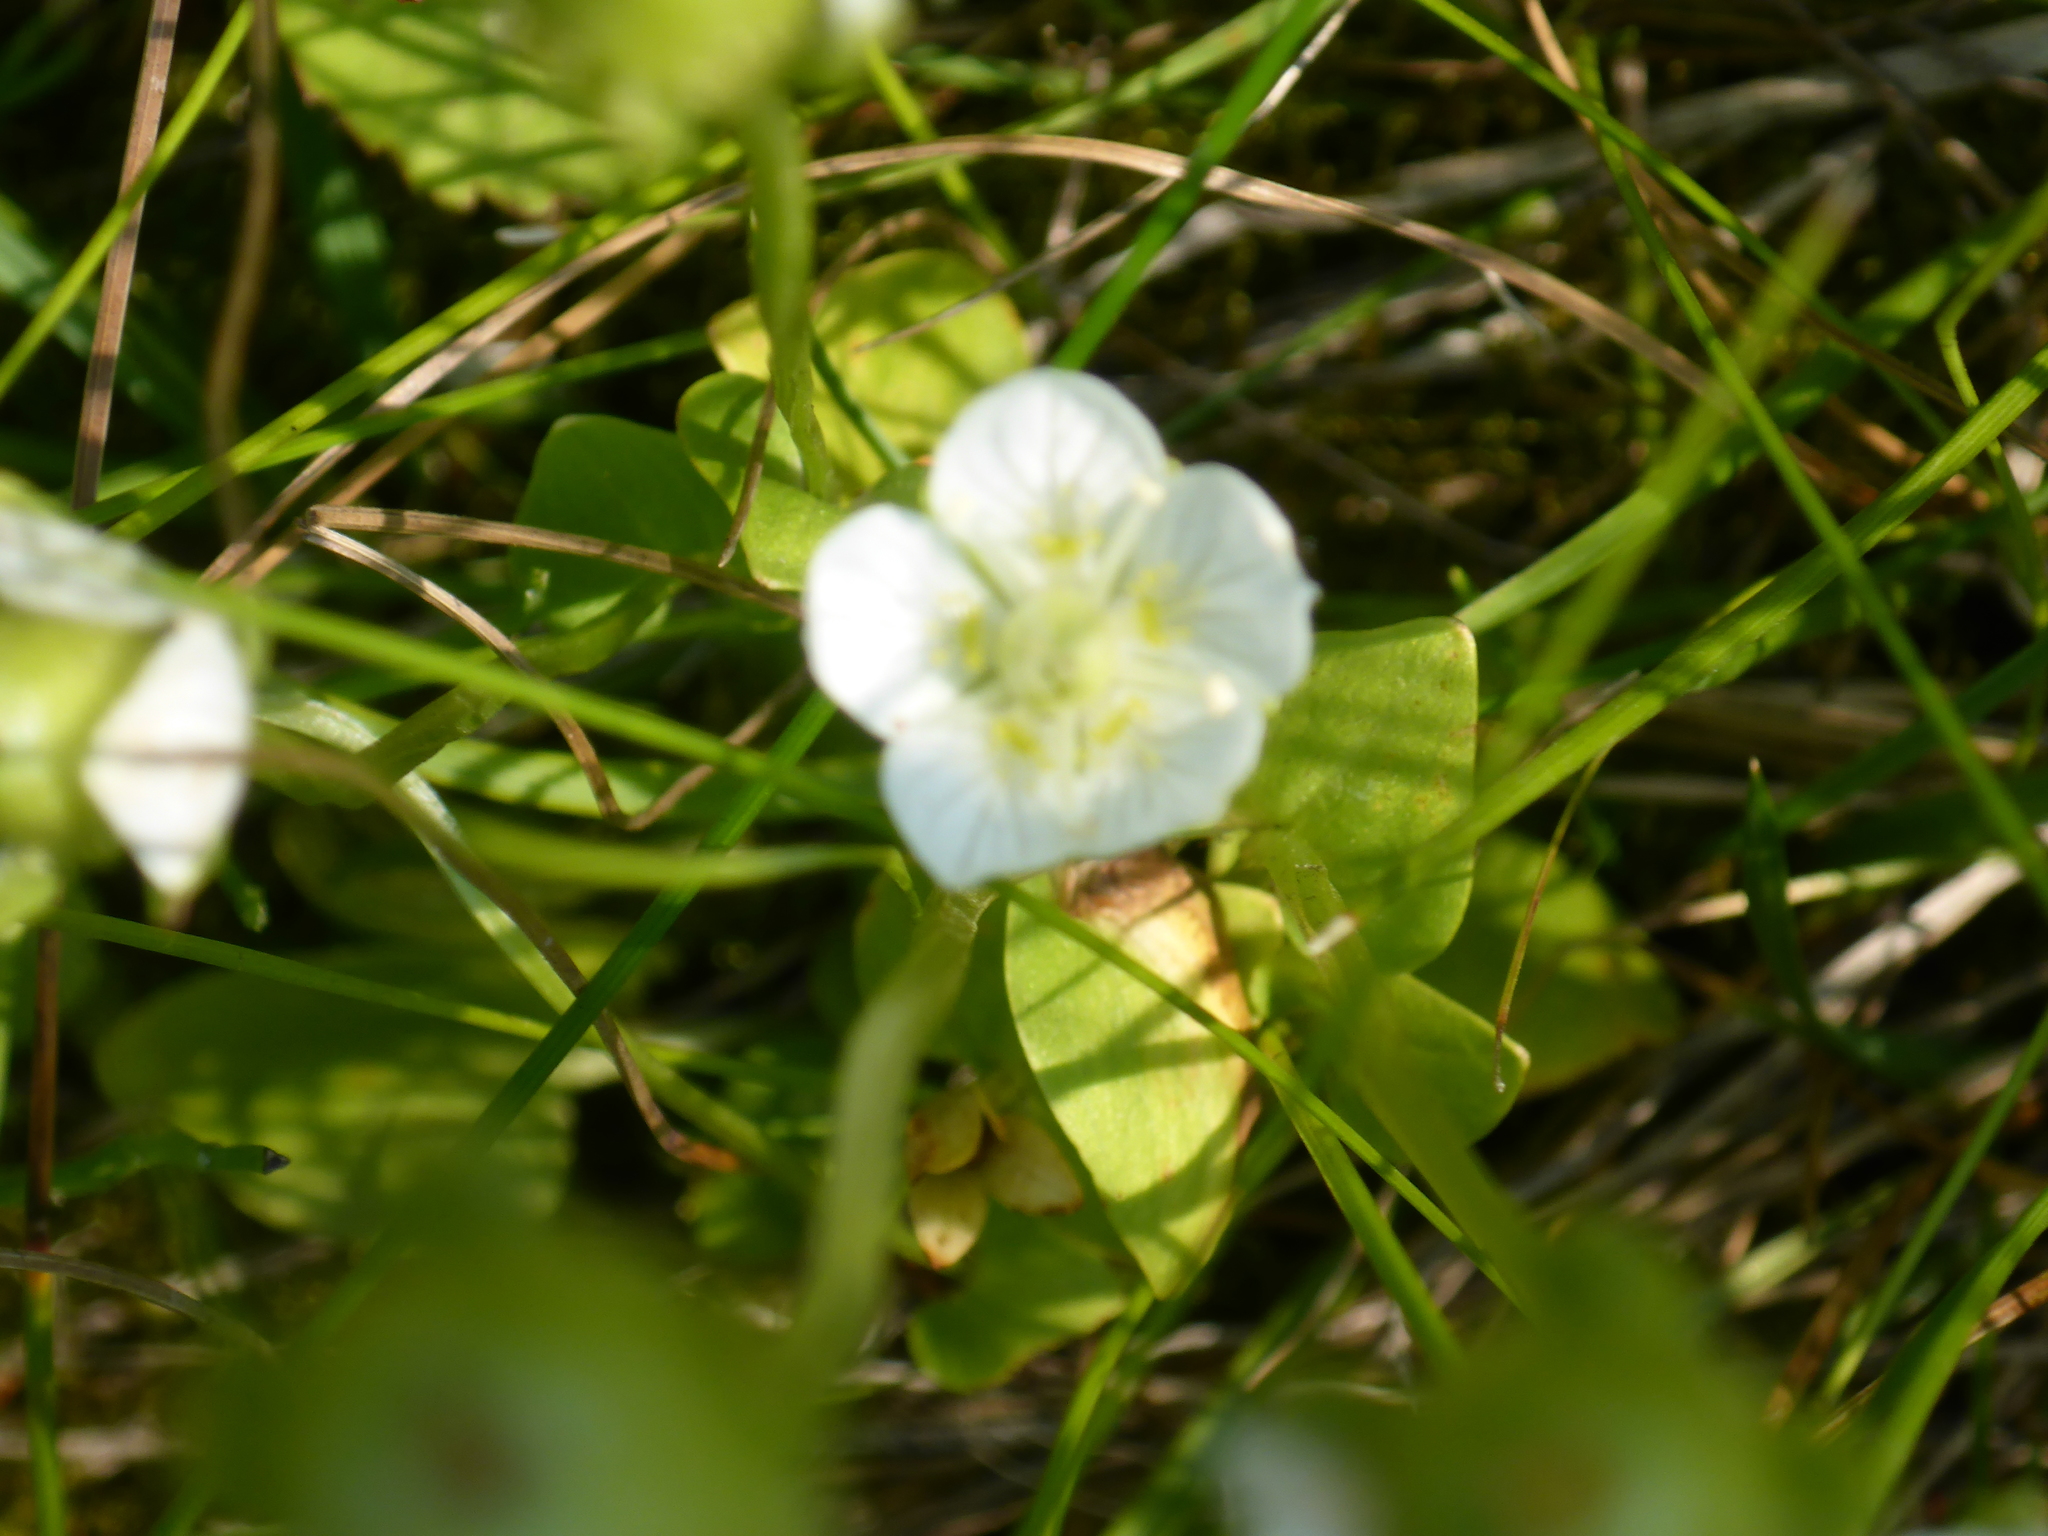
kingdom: Plantae
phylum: Tracheophyta
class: Magnoliopsida
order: Celastrales
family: Parnassiaceae
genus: Parnassia
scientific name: Parnassia palustris
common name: Grass-of-parnassus
